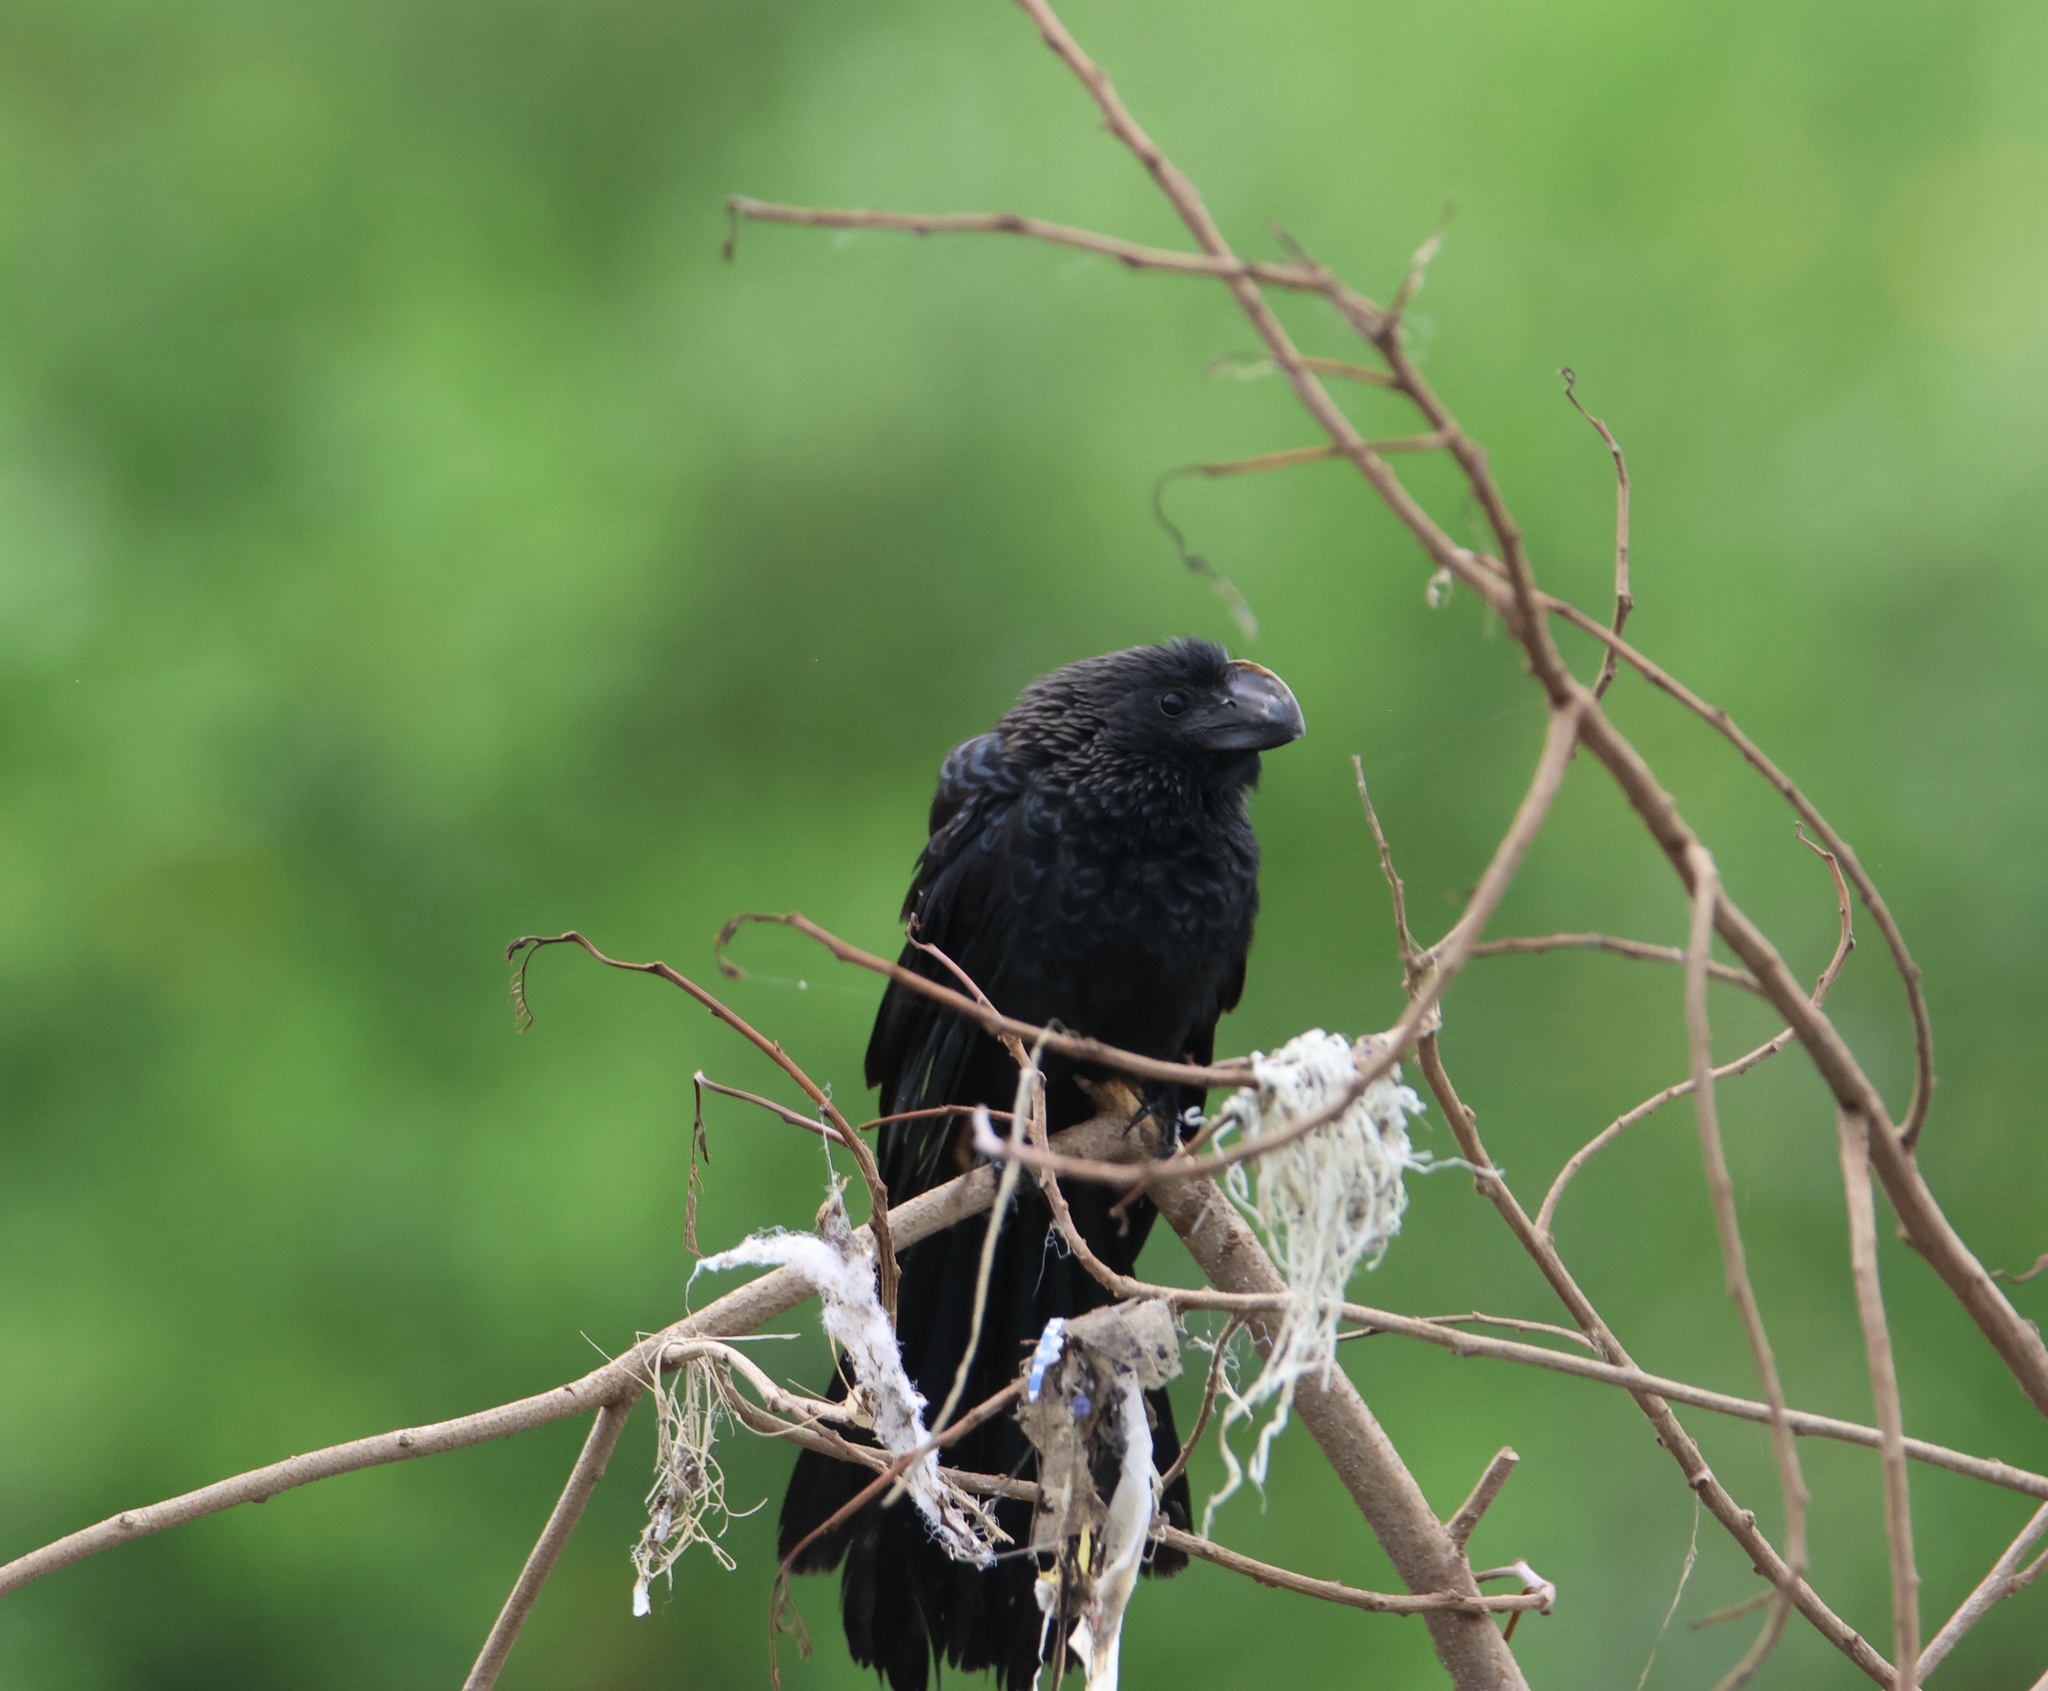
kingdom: Animalia
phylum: Chordata
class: Aves
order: Cuculiformes
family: Cuculidae
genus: Crotophaga
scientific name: Crotophaga ani
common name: Smooth-billed ani
